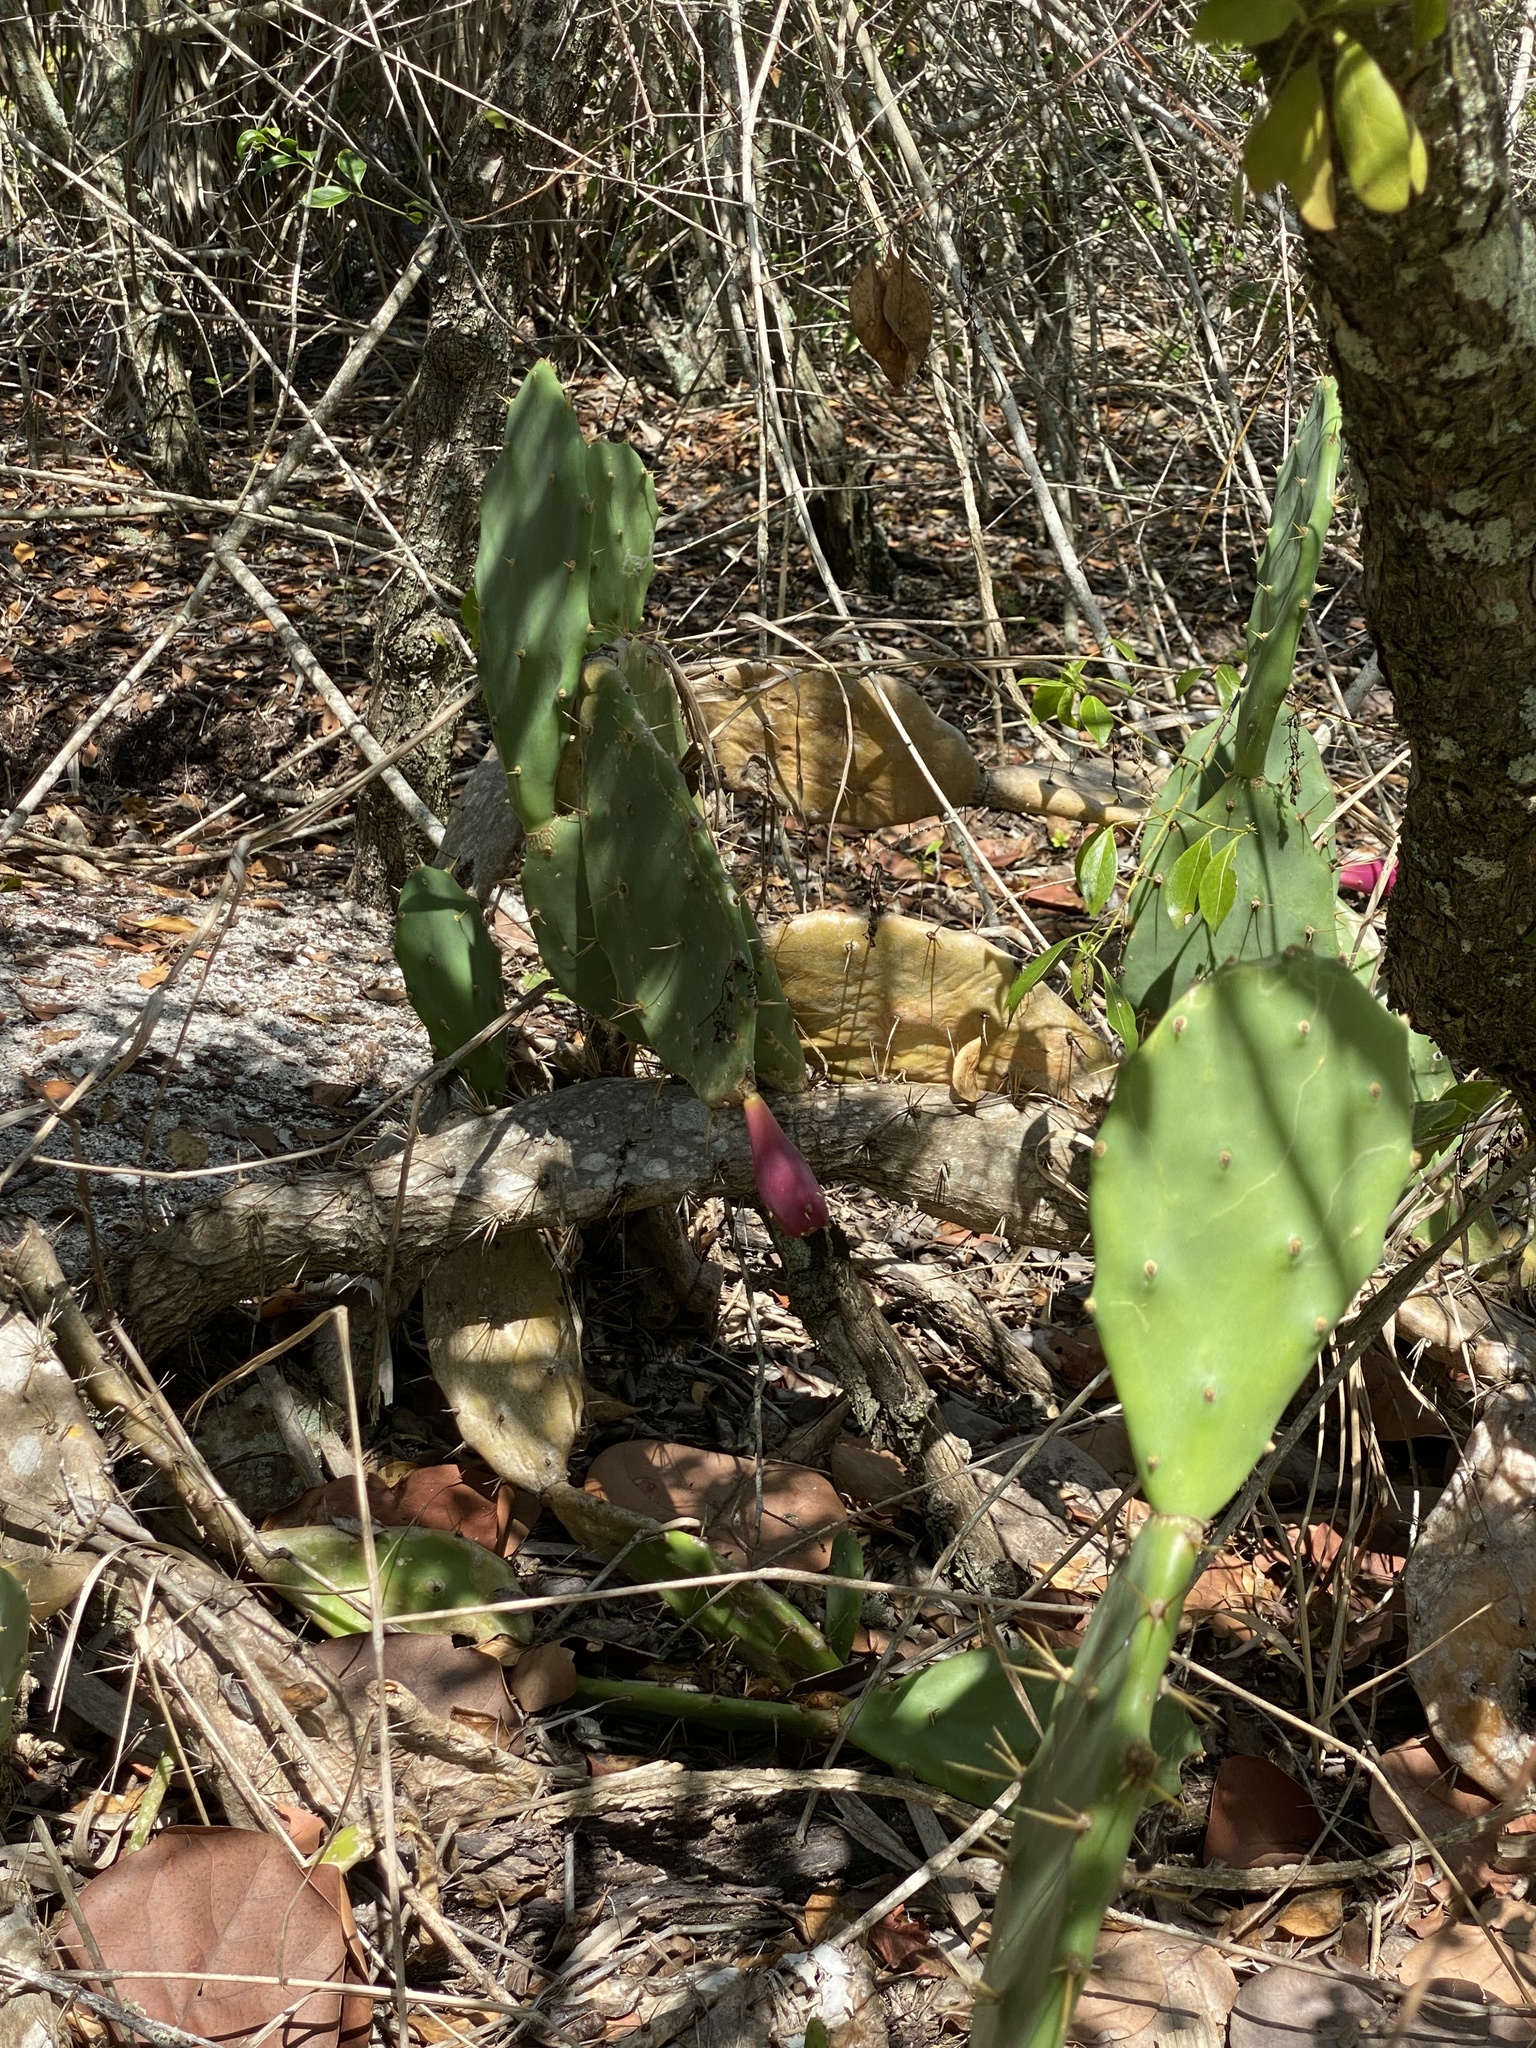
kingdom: Plantae
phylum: Tracheophyta
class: Magnoliopsida
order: Caryophyllales
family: Cactaceae
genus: Opuntia
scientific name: Opuntia stricta
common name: Erect pricklypear
